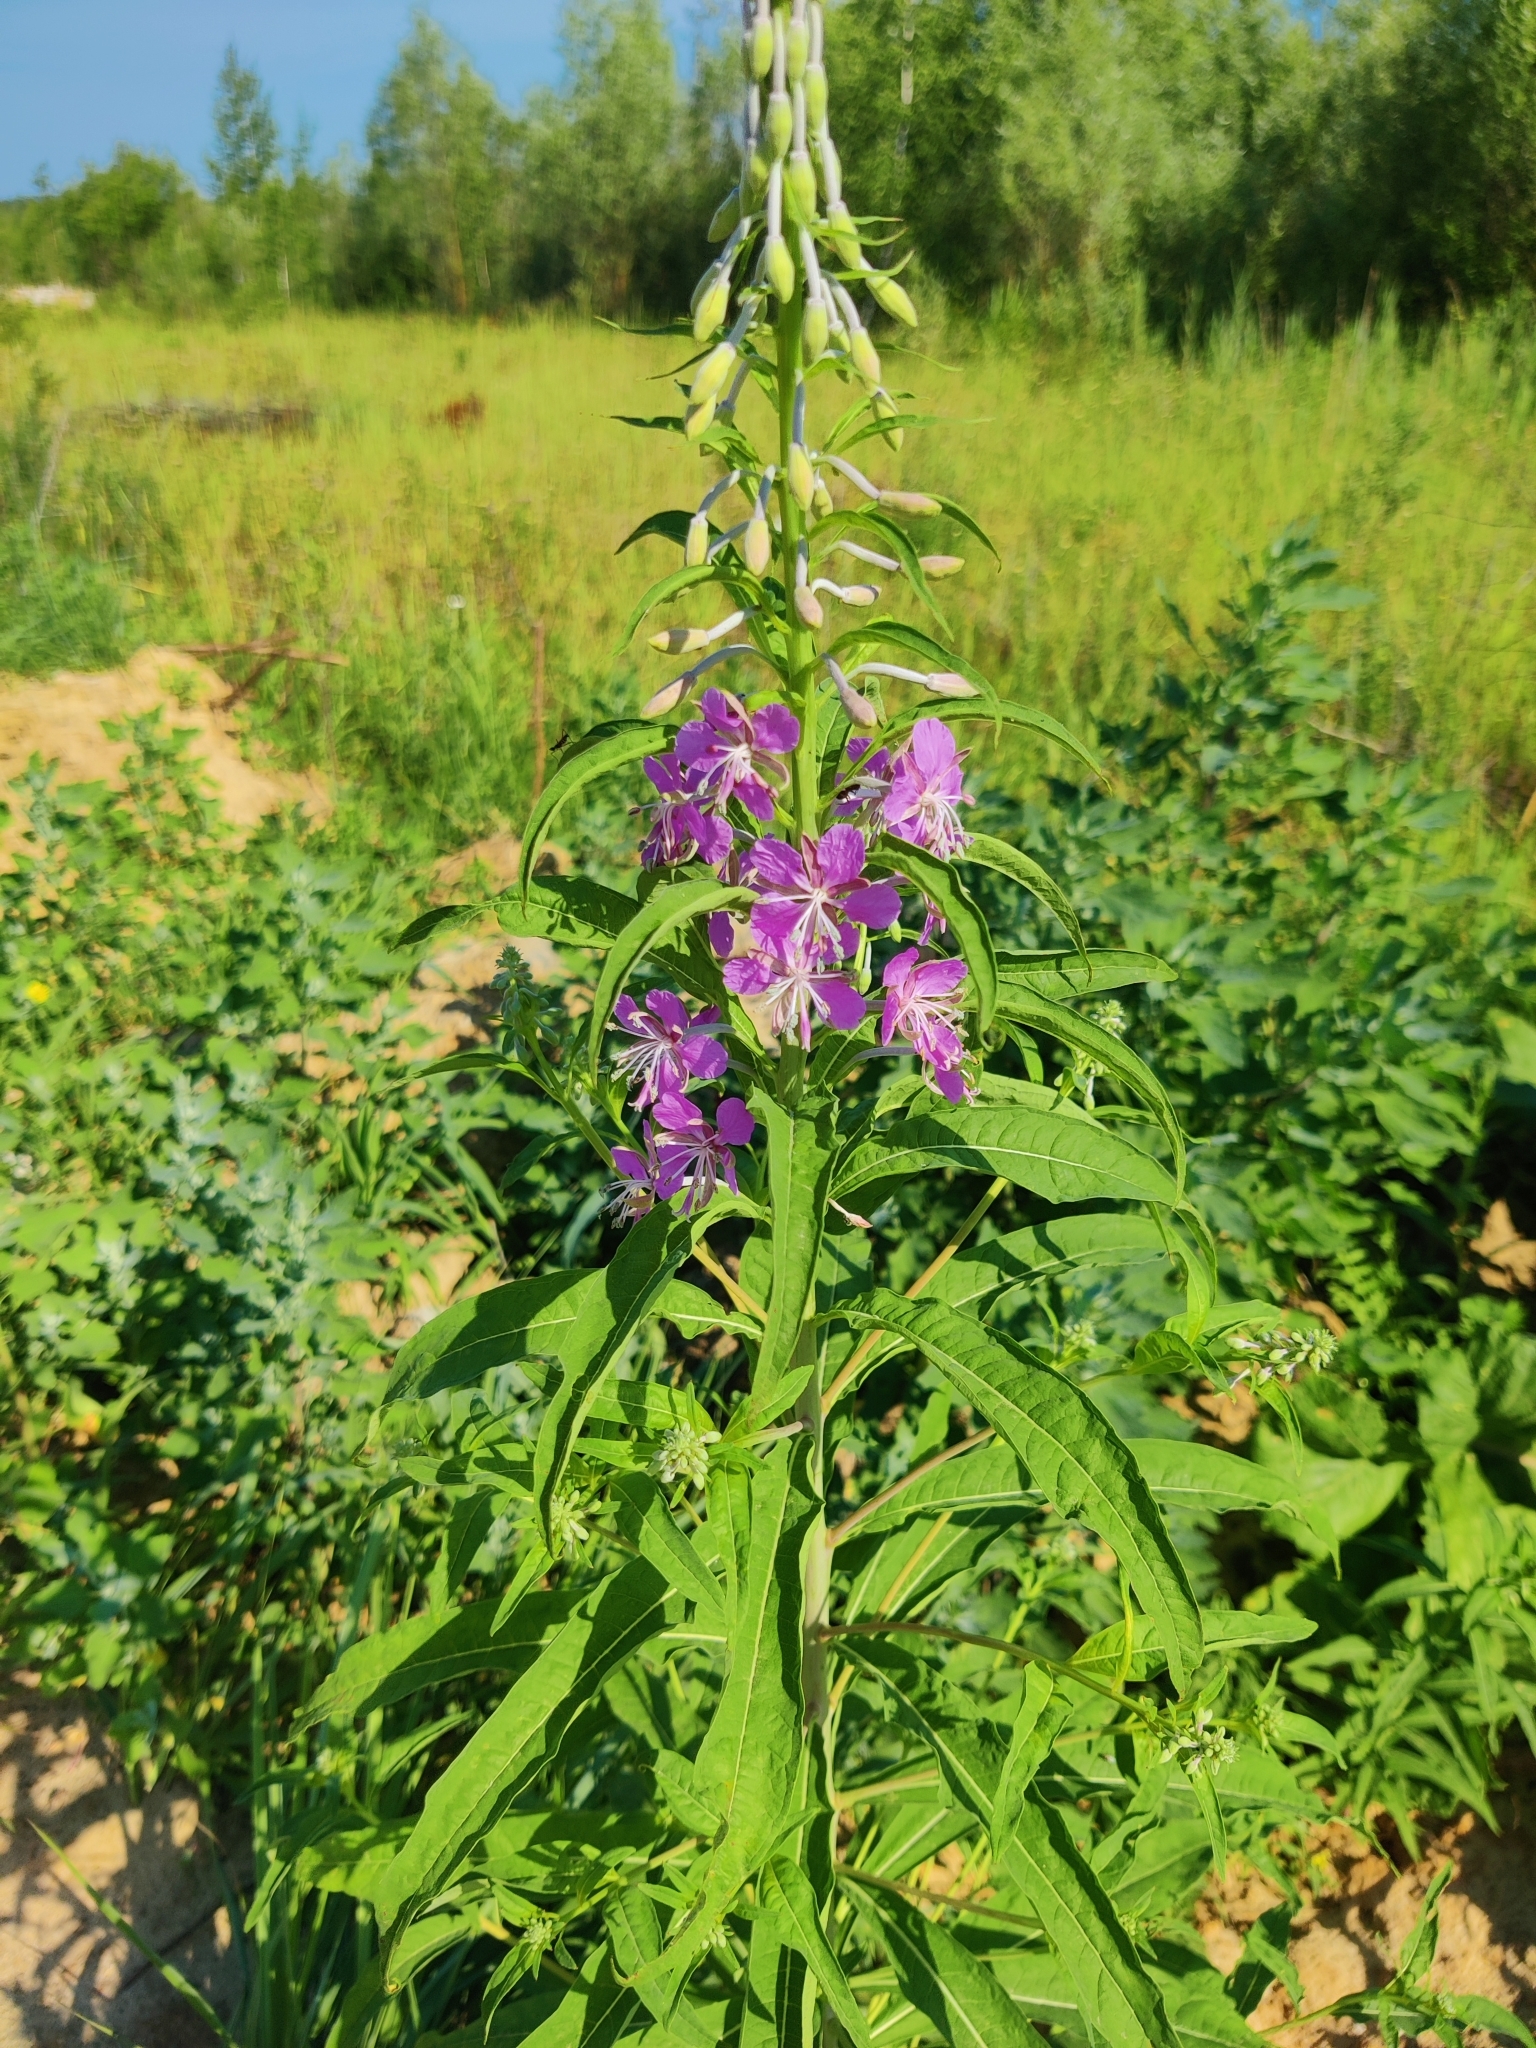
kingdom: Plantae
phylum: Tracheophyta
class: Magnoliopsida
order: Myrtales
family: Onagraceae
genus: Chamaenerion
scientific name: Chamaenerion angustifolium
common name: Fireweed
